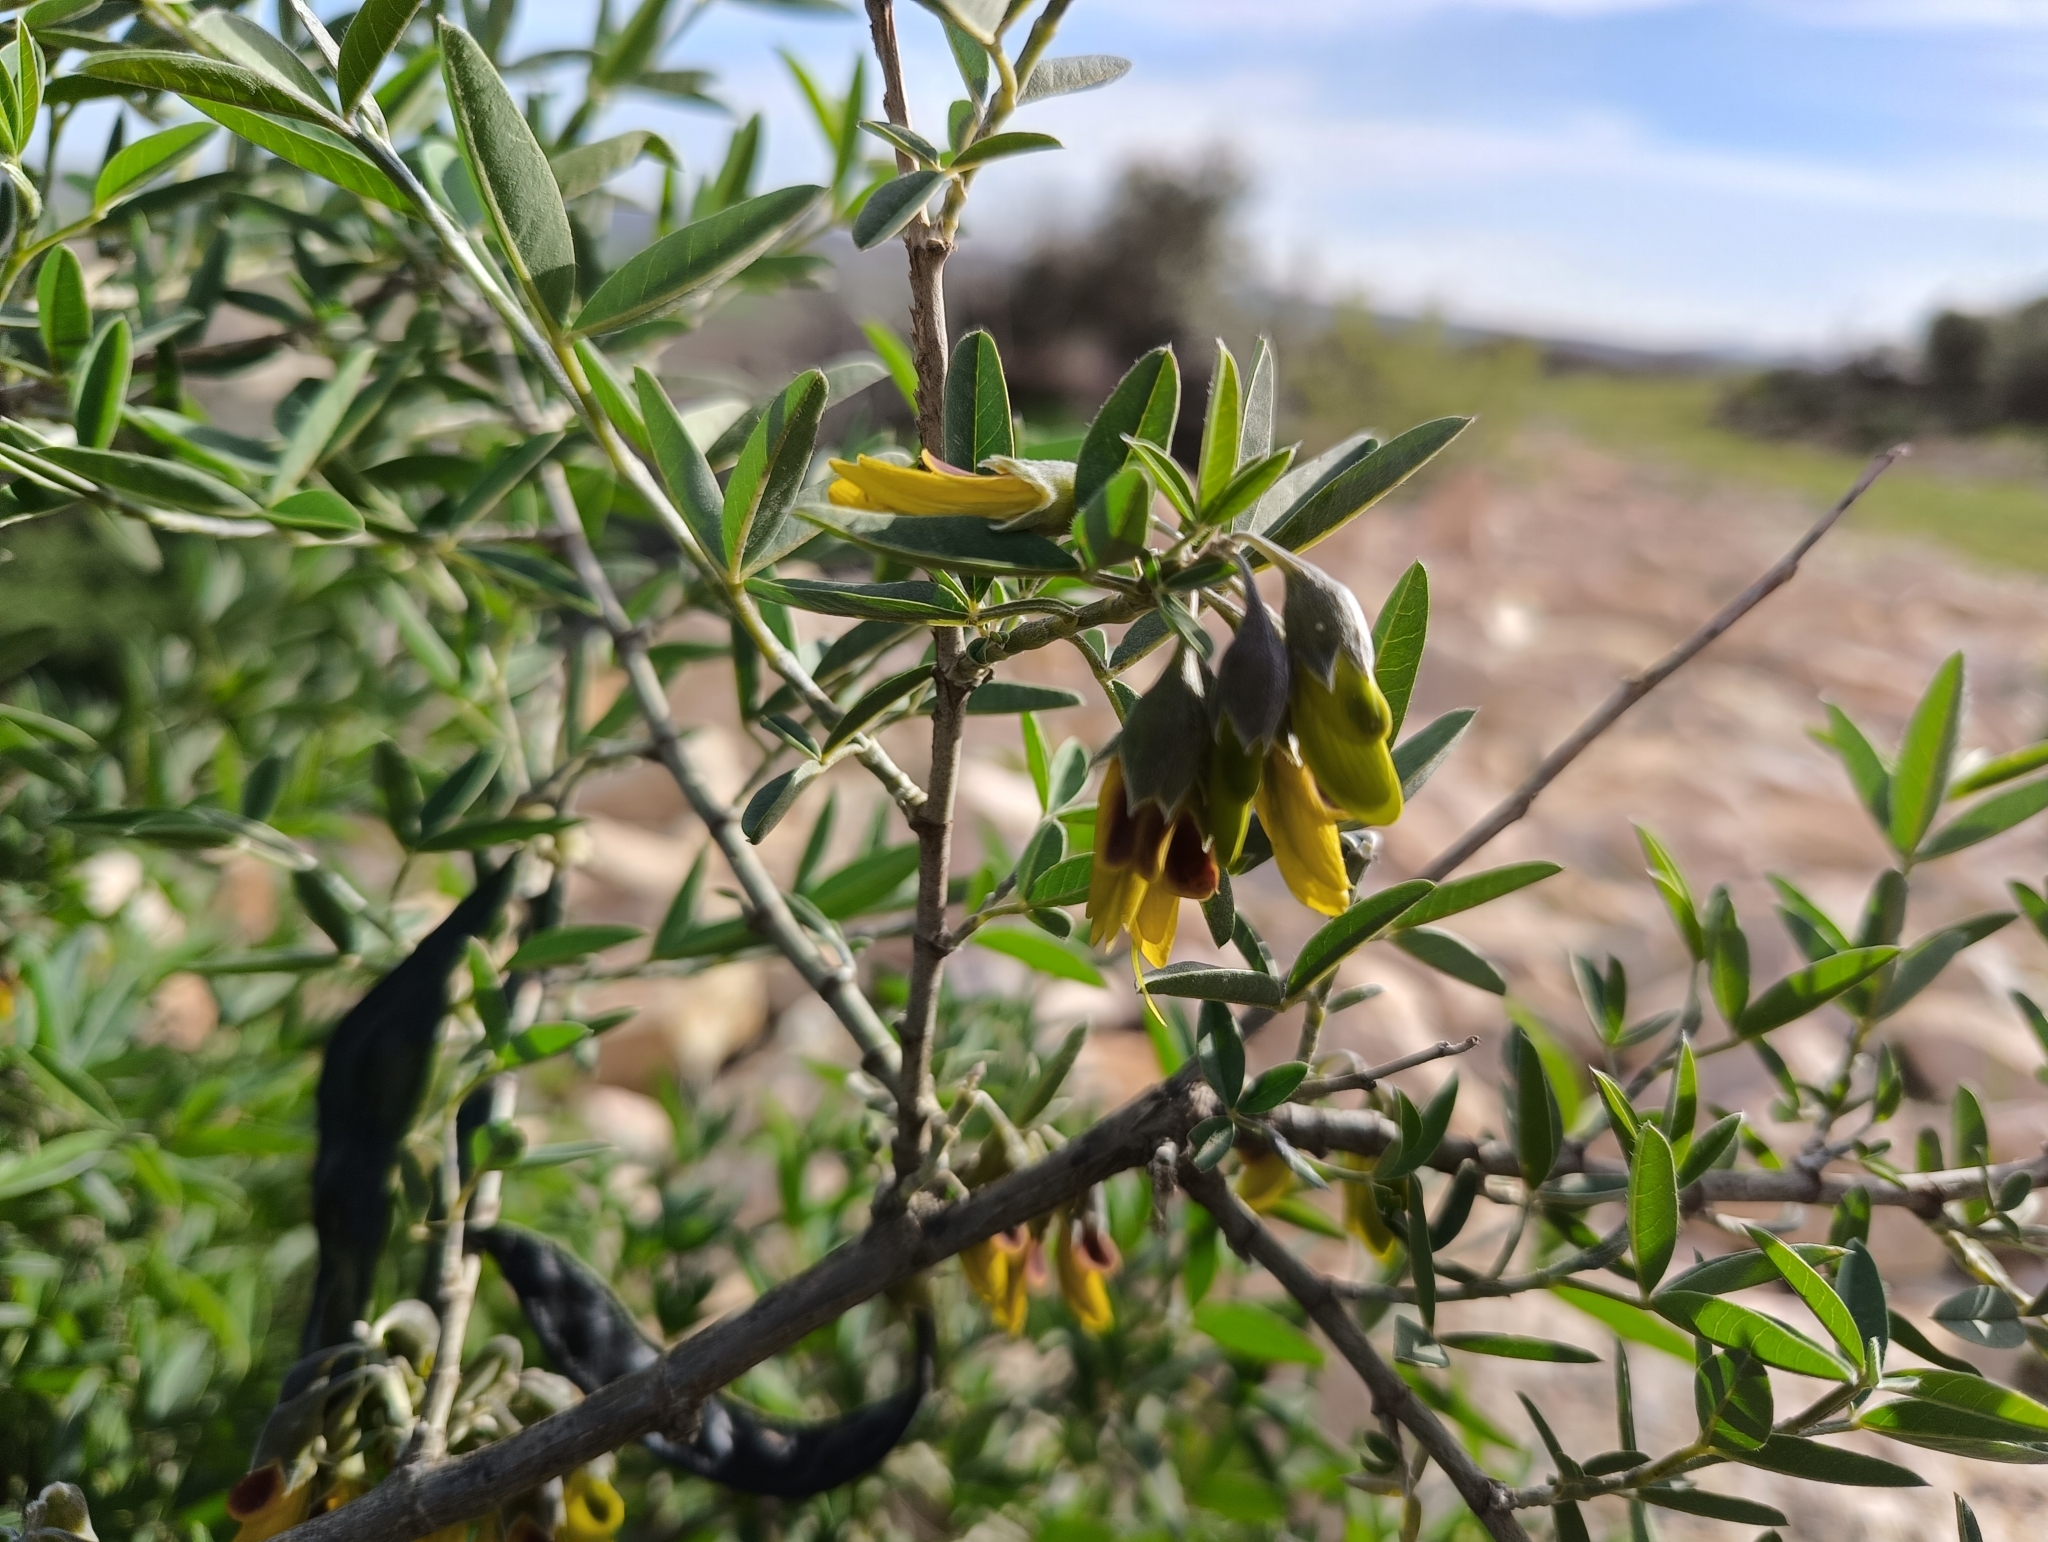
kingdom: Plantae
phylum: Tracheophyta
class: Magnoliopsida
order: Fabales
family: Fabaceae
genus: Anagyris
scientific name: Anagyris foetida
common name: Stinking bean trefoil
